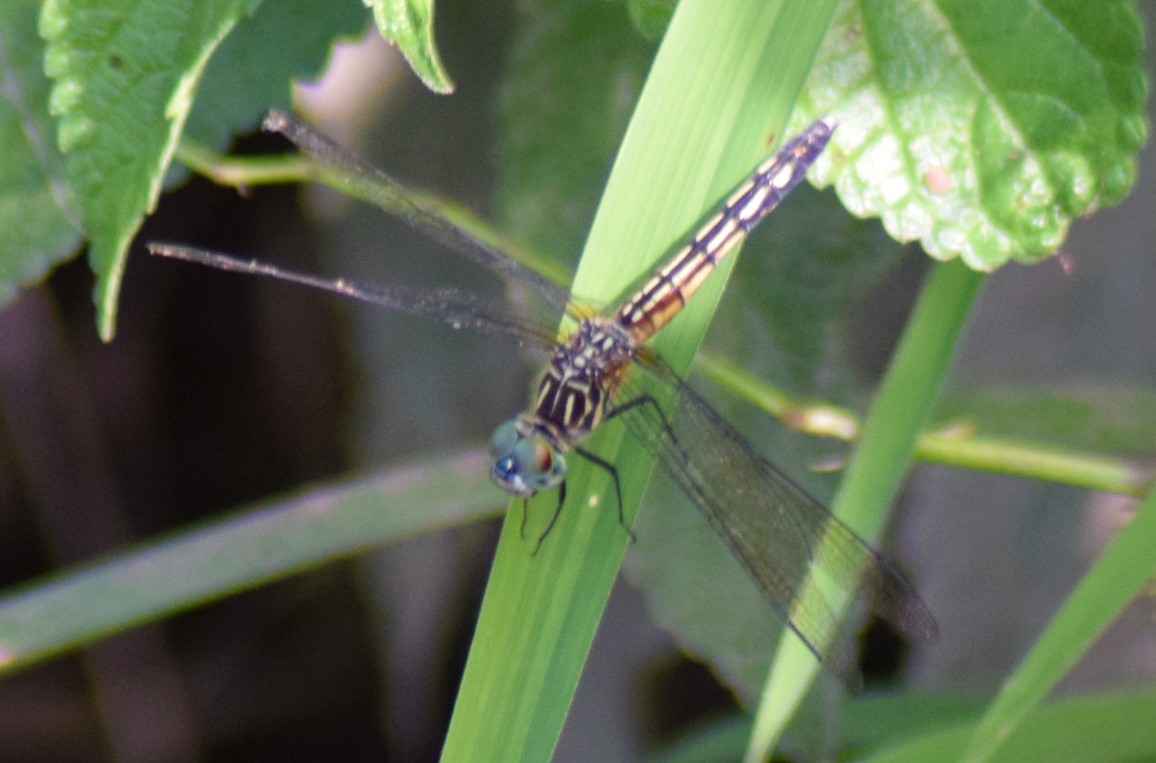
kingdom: Animalia
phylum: Arthropoda
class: Insecta
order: Odonata
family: Libellulidae
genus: Pachydiplax
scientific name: Pachydiplax longipennis
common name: Blue dasher
